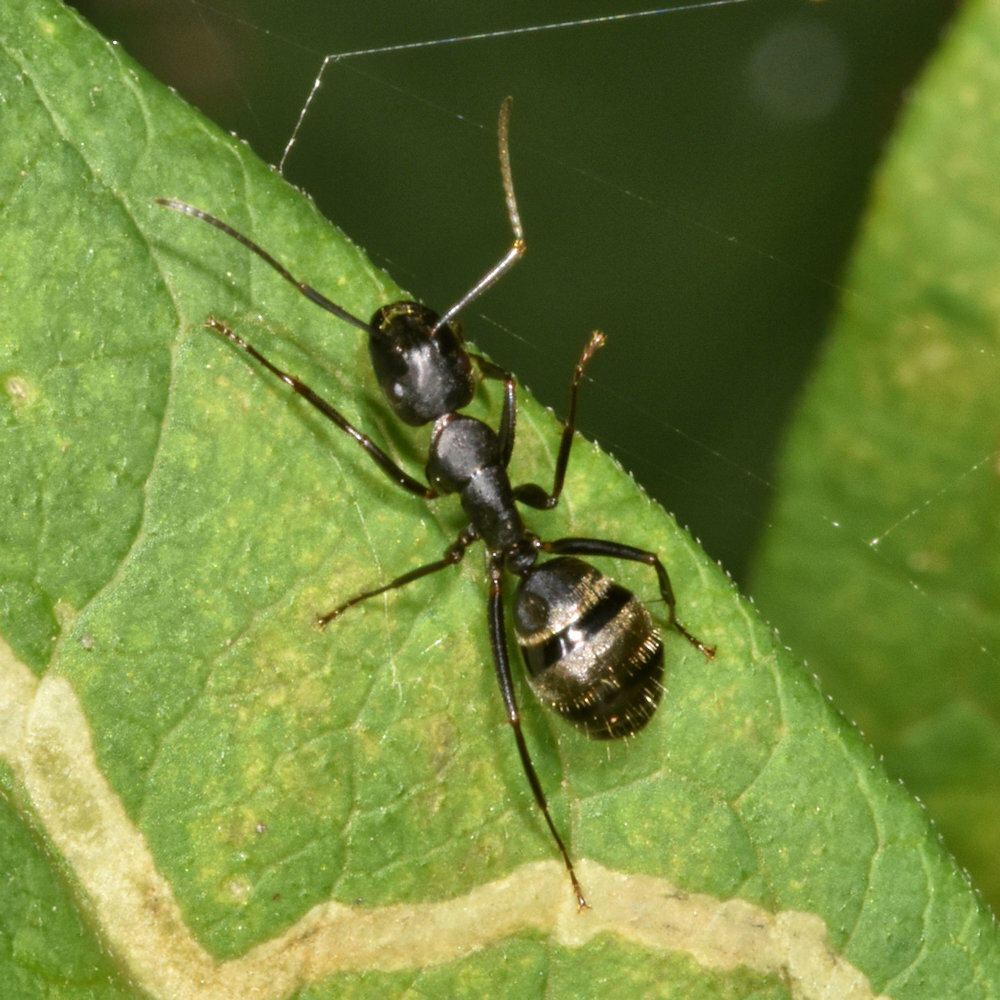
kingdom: Animalia
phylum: Arthropoda
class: Insecta
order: Hymenoptera
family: Formicidae
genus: Camponotus
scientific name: Camponotus pennsylvanicus
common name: Black carpenter ant
